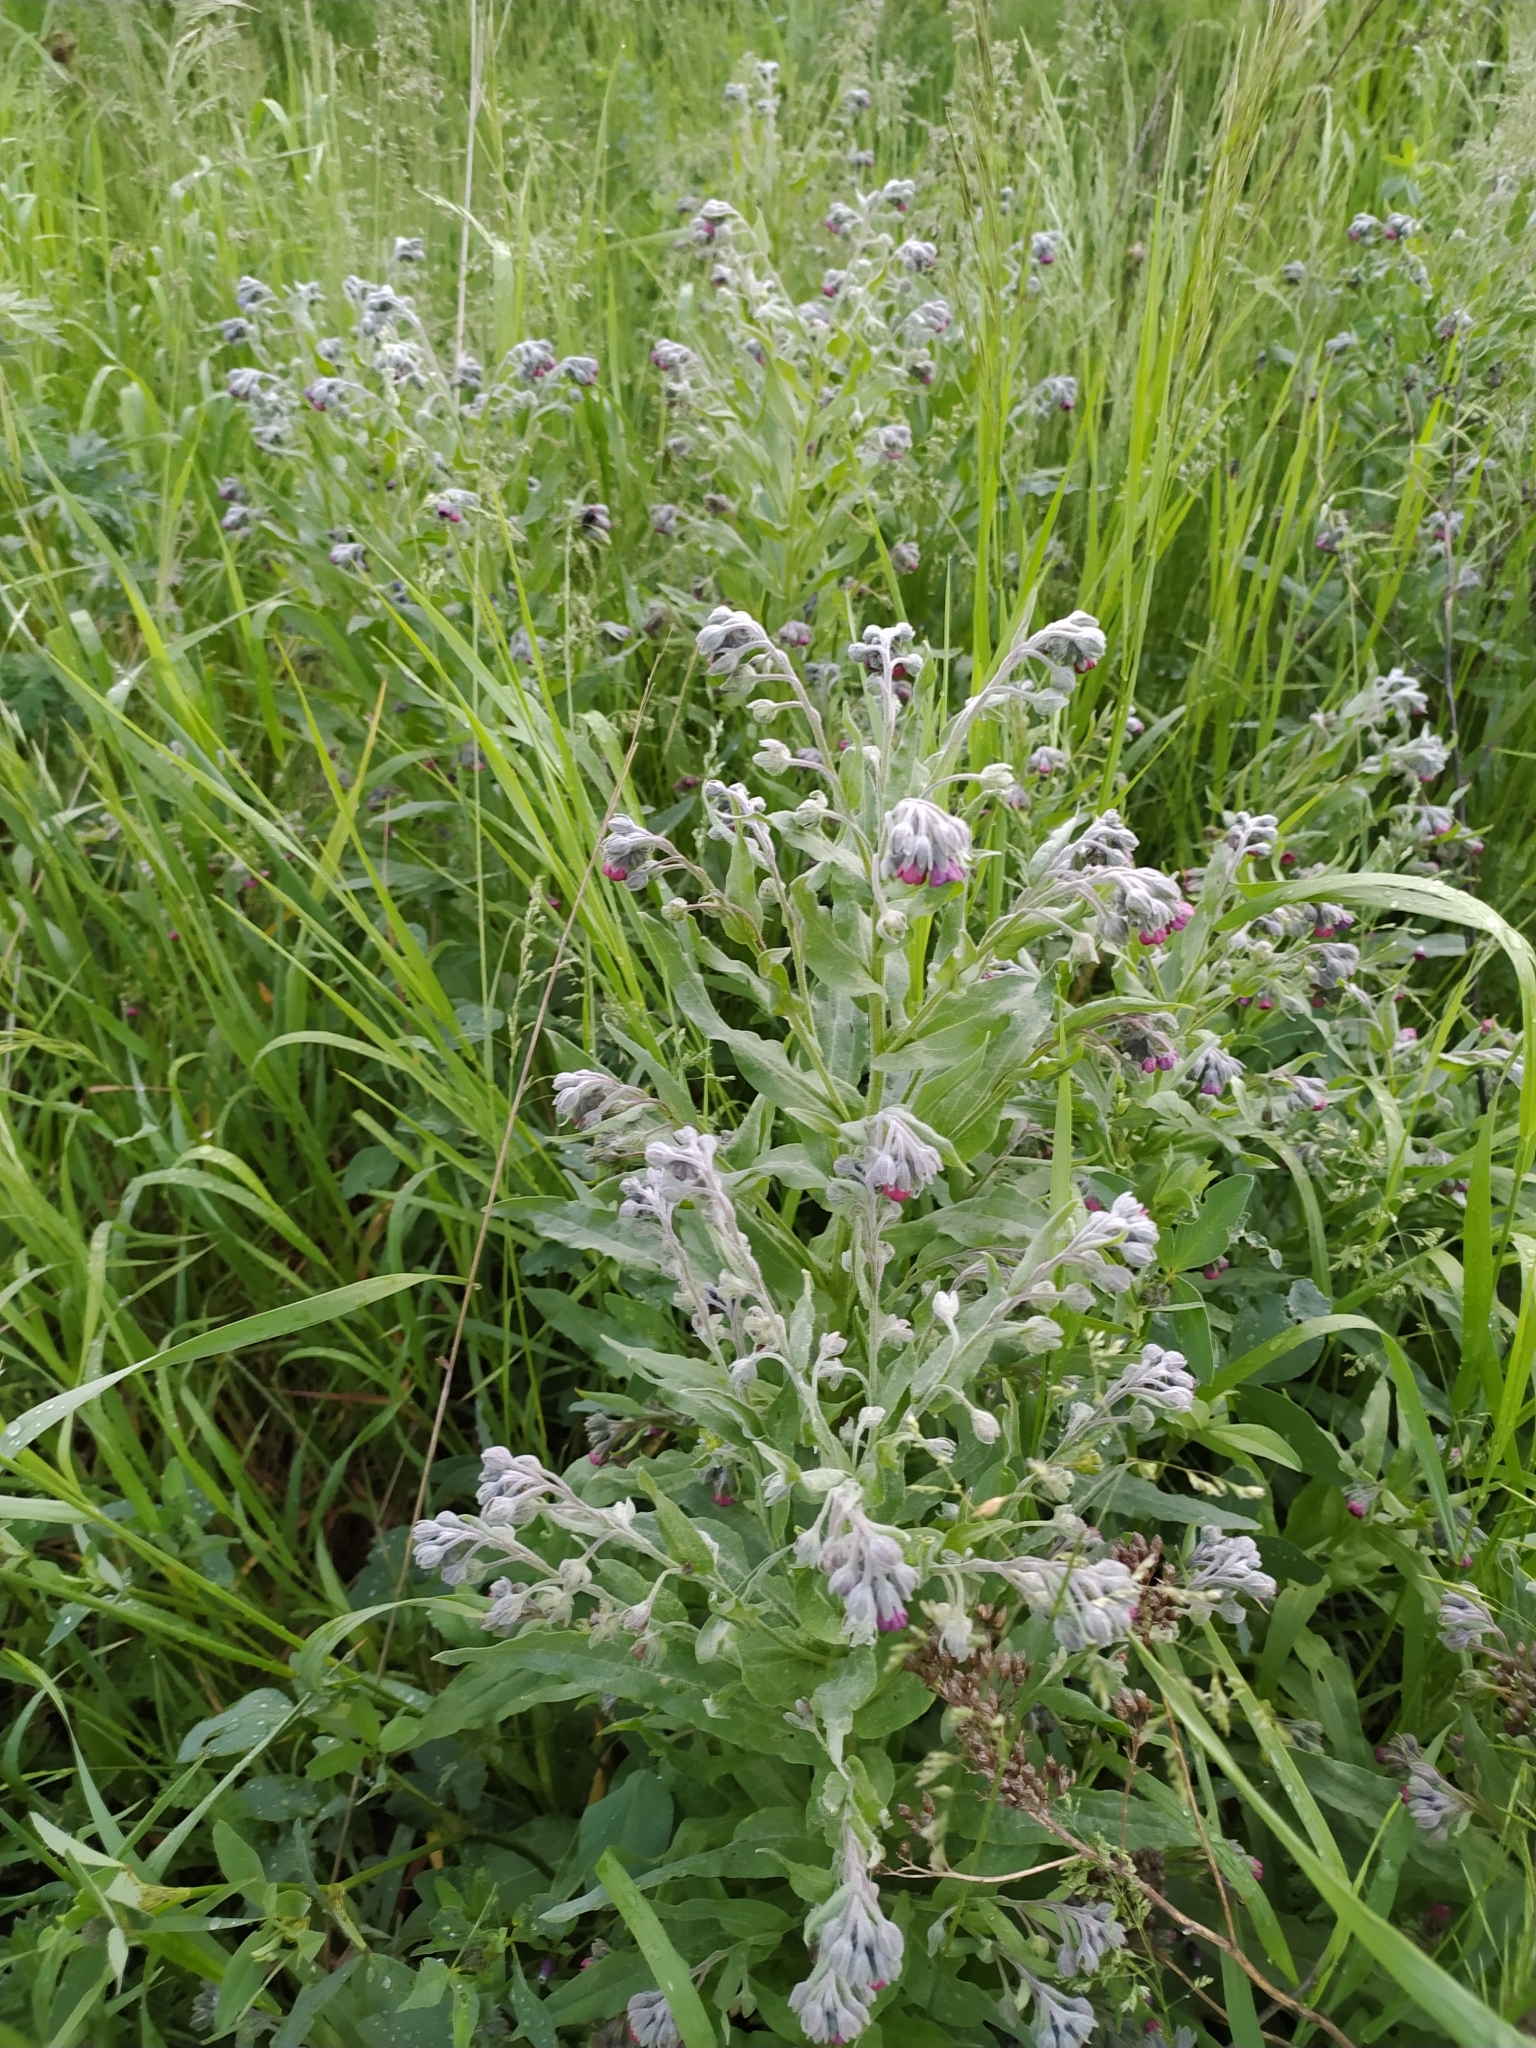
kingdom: Plantae
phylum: Tracheophyta
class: Magnoliopsida
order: Boraginales
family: Boraginaceae
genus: Cynoglossum
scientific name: Cynoglossum officinale
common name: Hound's-tongue
